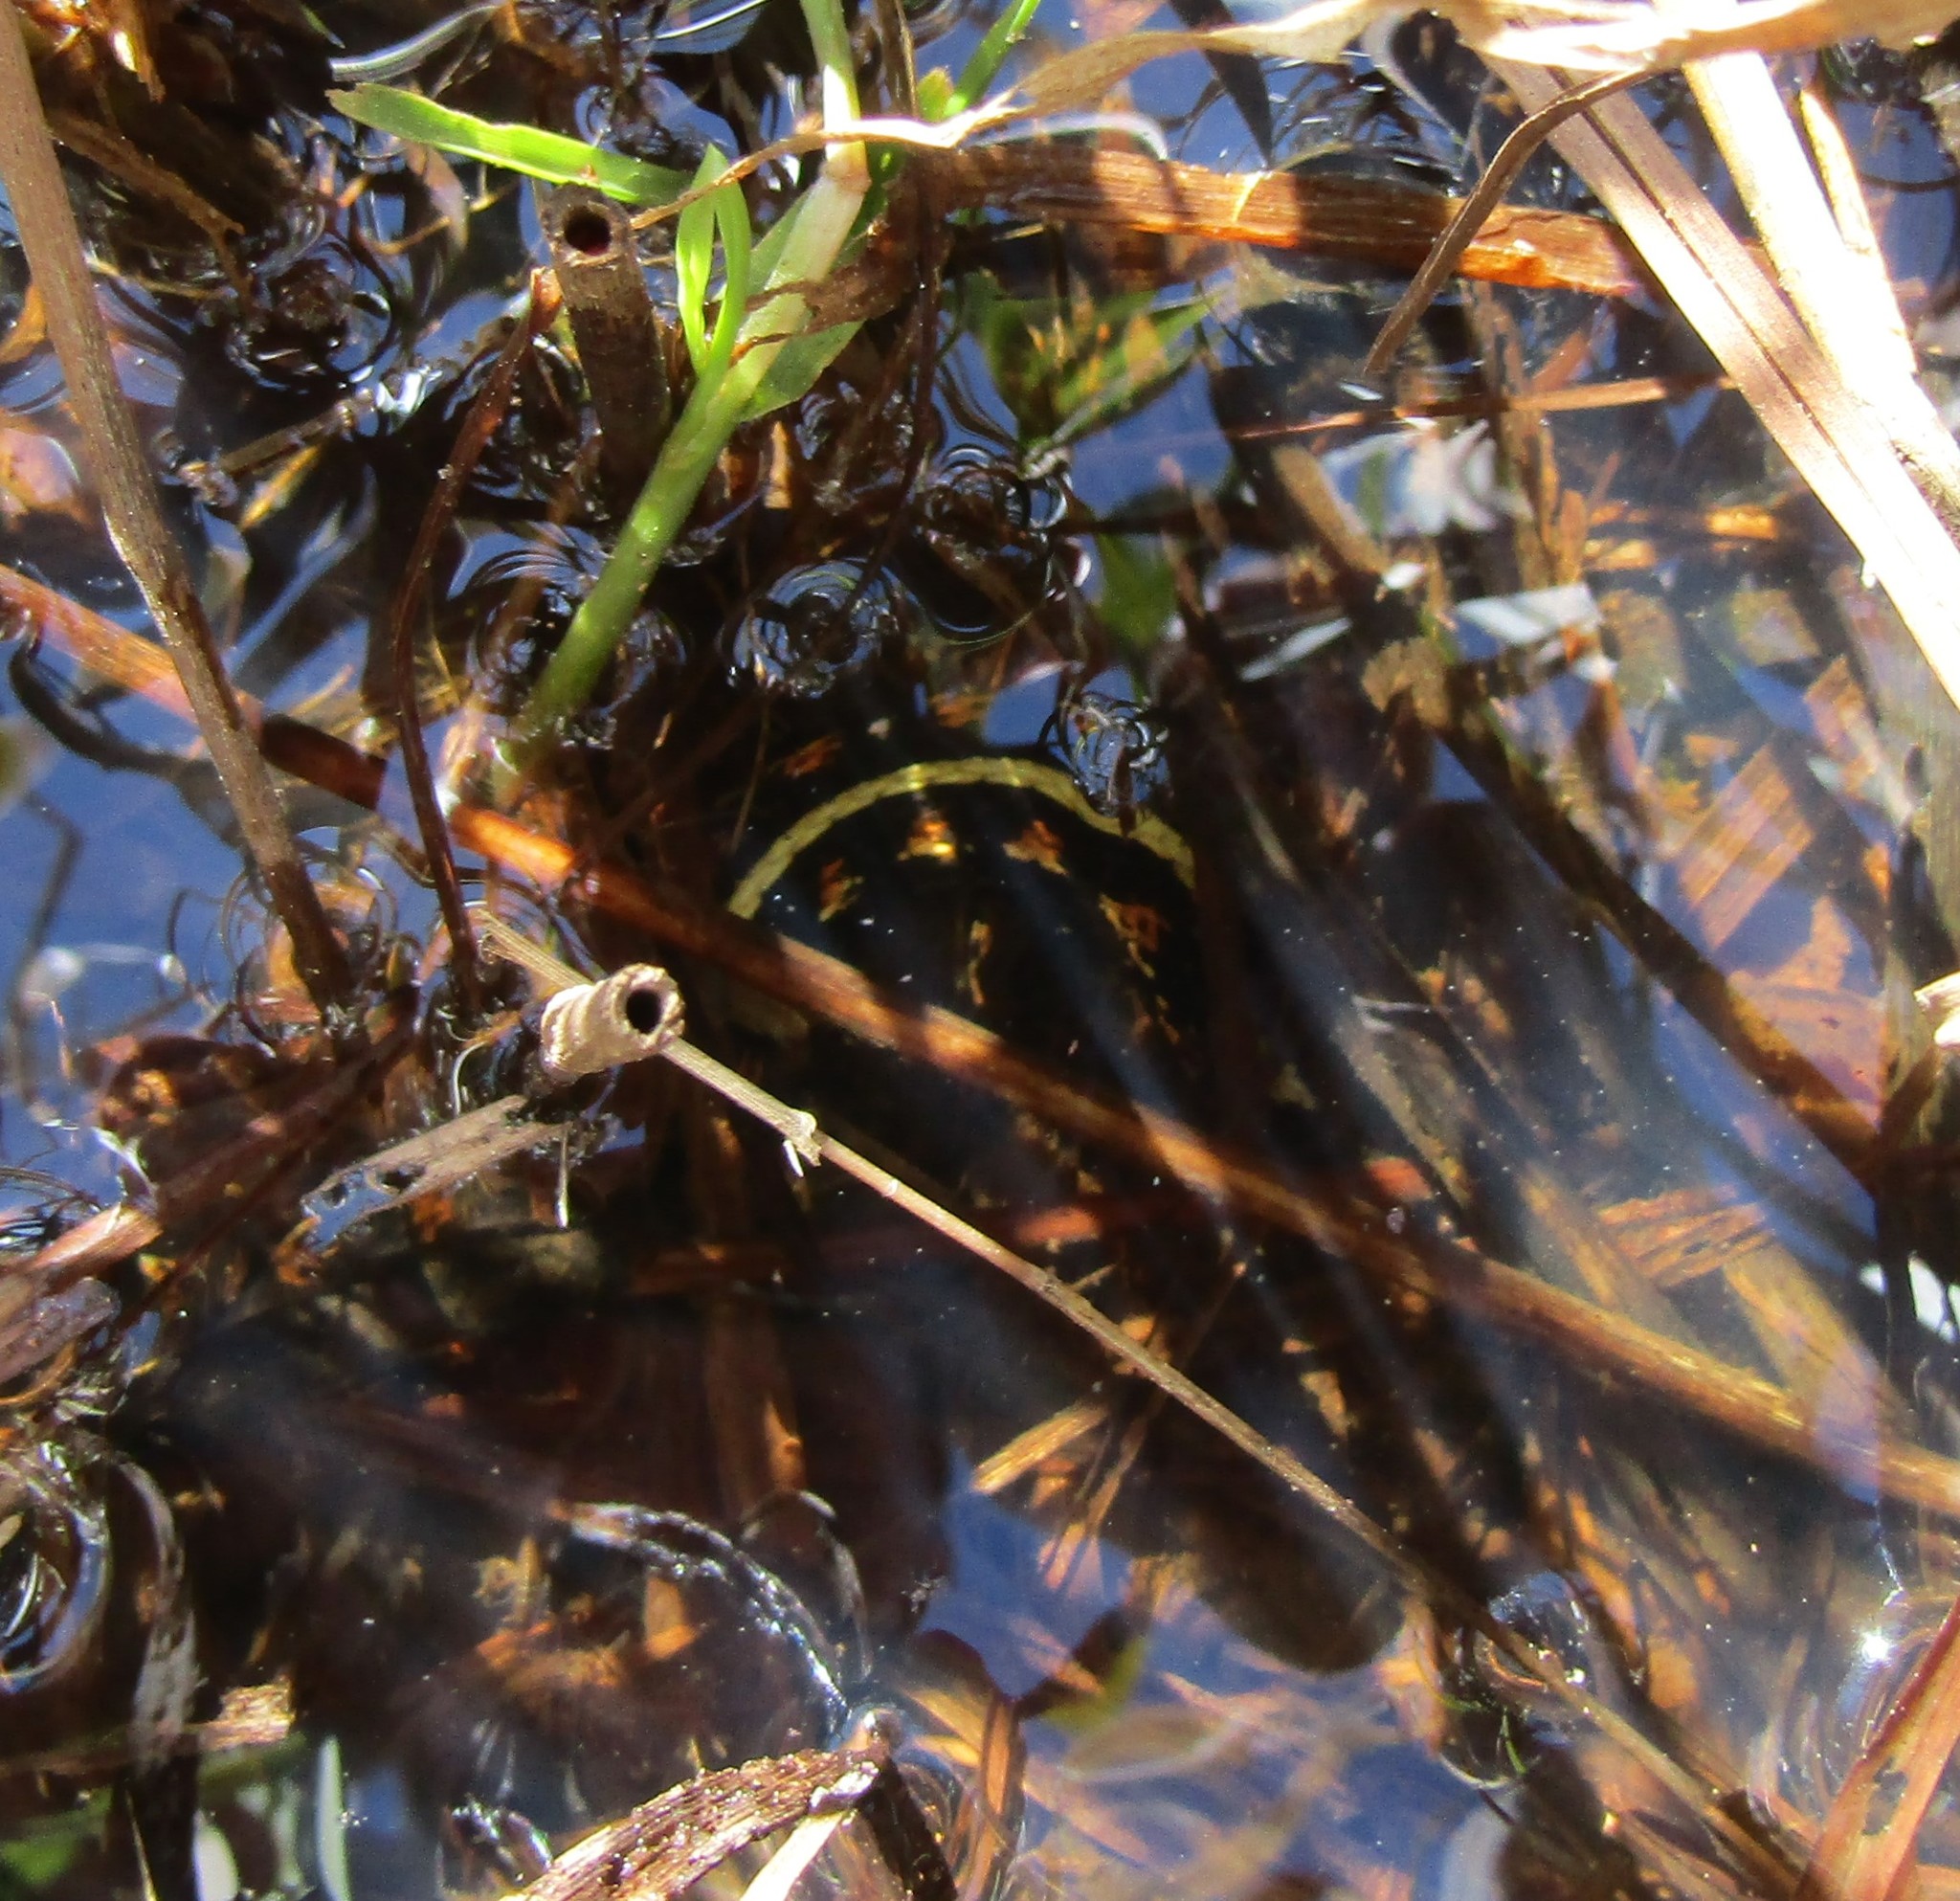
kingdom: Animalia
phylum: Chordata
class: Squamata
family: Colubridae
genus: Thamnophis
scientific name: Thamnophis sirtalis
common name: Common garter snake
